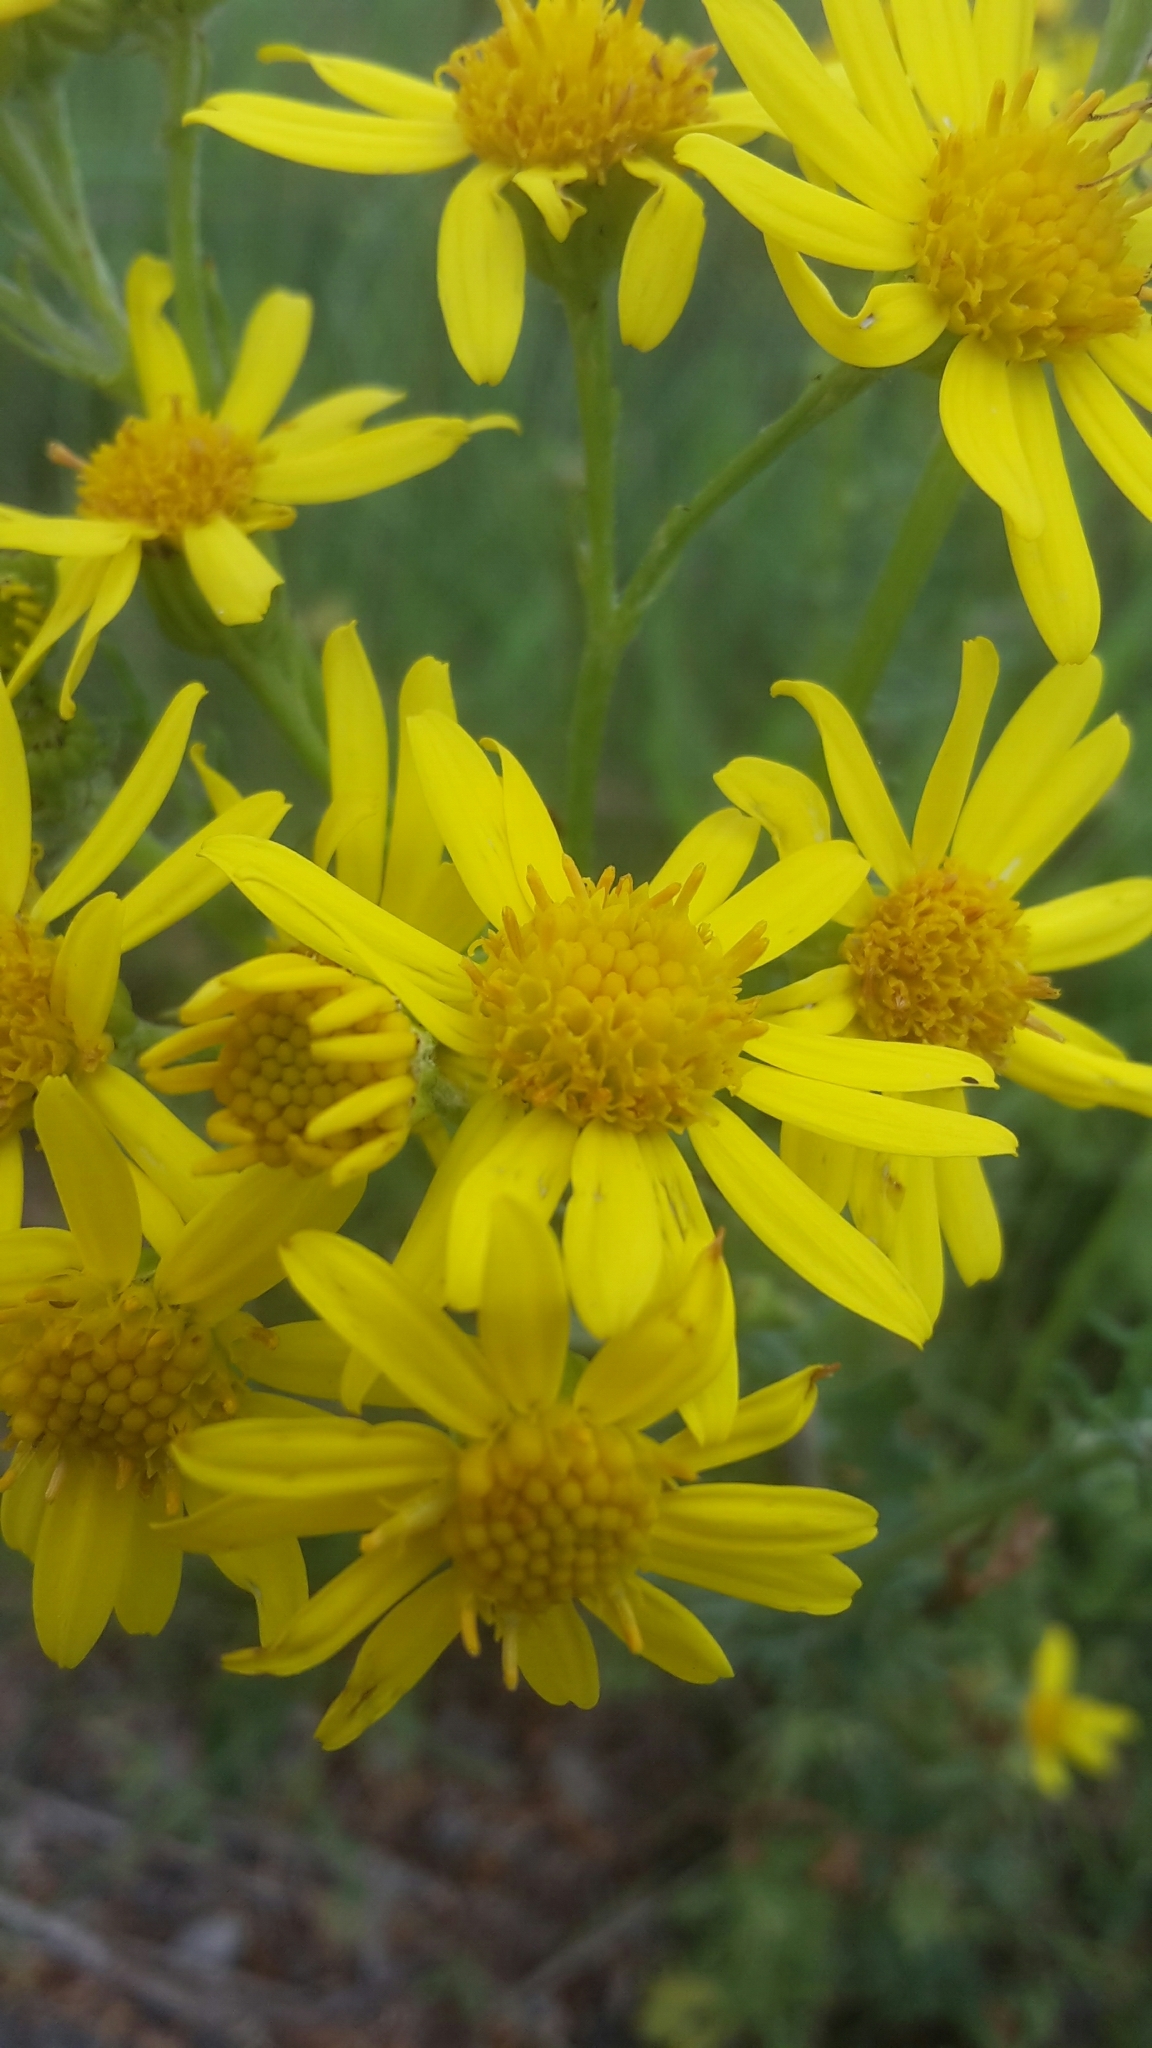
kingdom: Plantae
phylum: Tracheophyta
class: Magnoliopsida
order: Asterales
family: Asteraceae
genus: Jacobaea
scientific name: Jacobaea vulgaris
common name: Stinking willie
